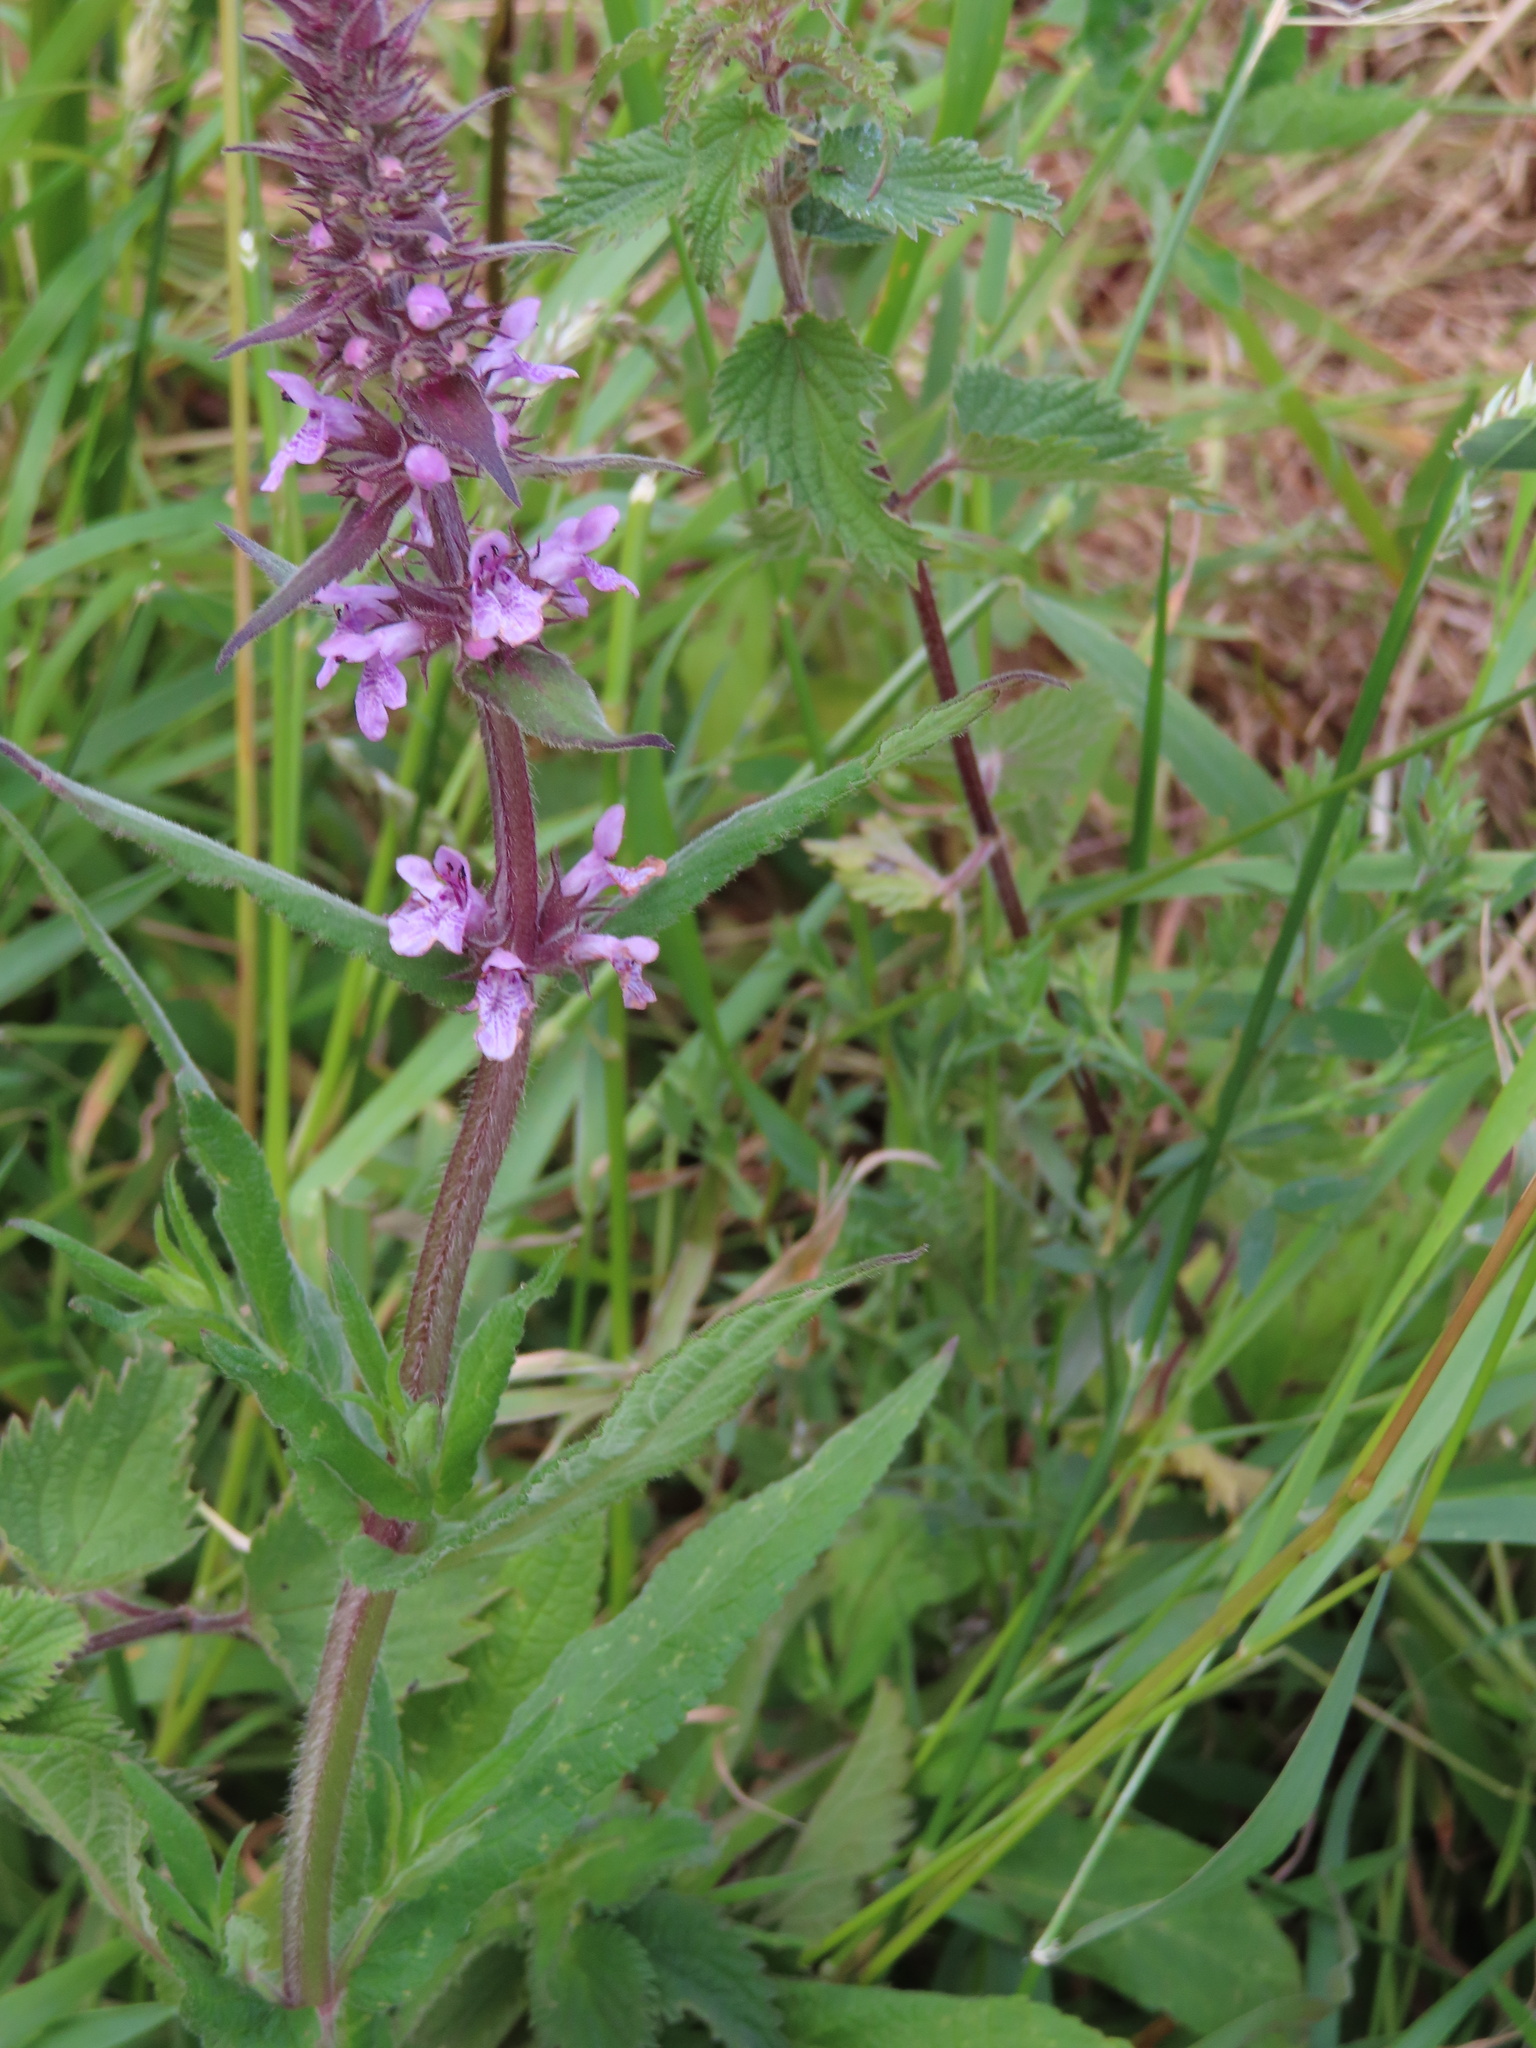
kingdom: Plantae
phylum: Tracheophyta
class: Magnoliopsida
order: Lamiales
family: Lamiaceae
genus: Stachys
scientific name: Stachys palustris
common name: Marsh woundwort
